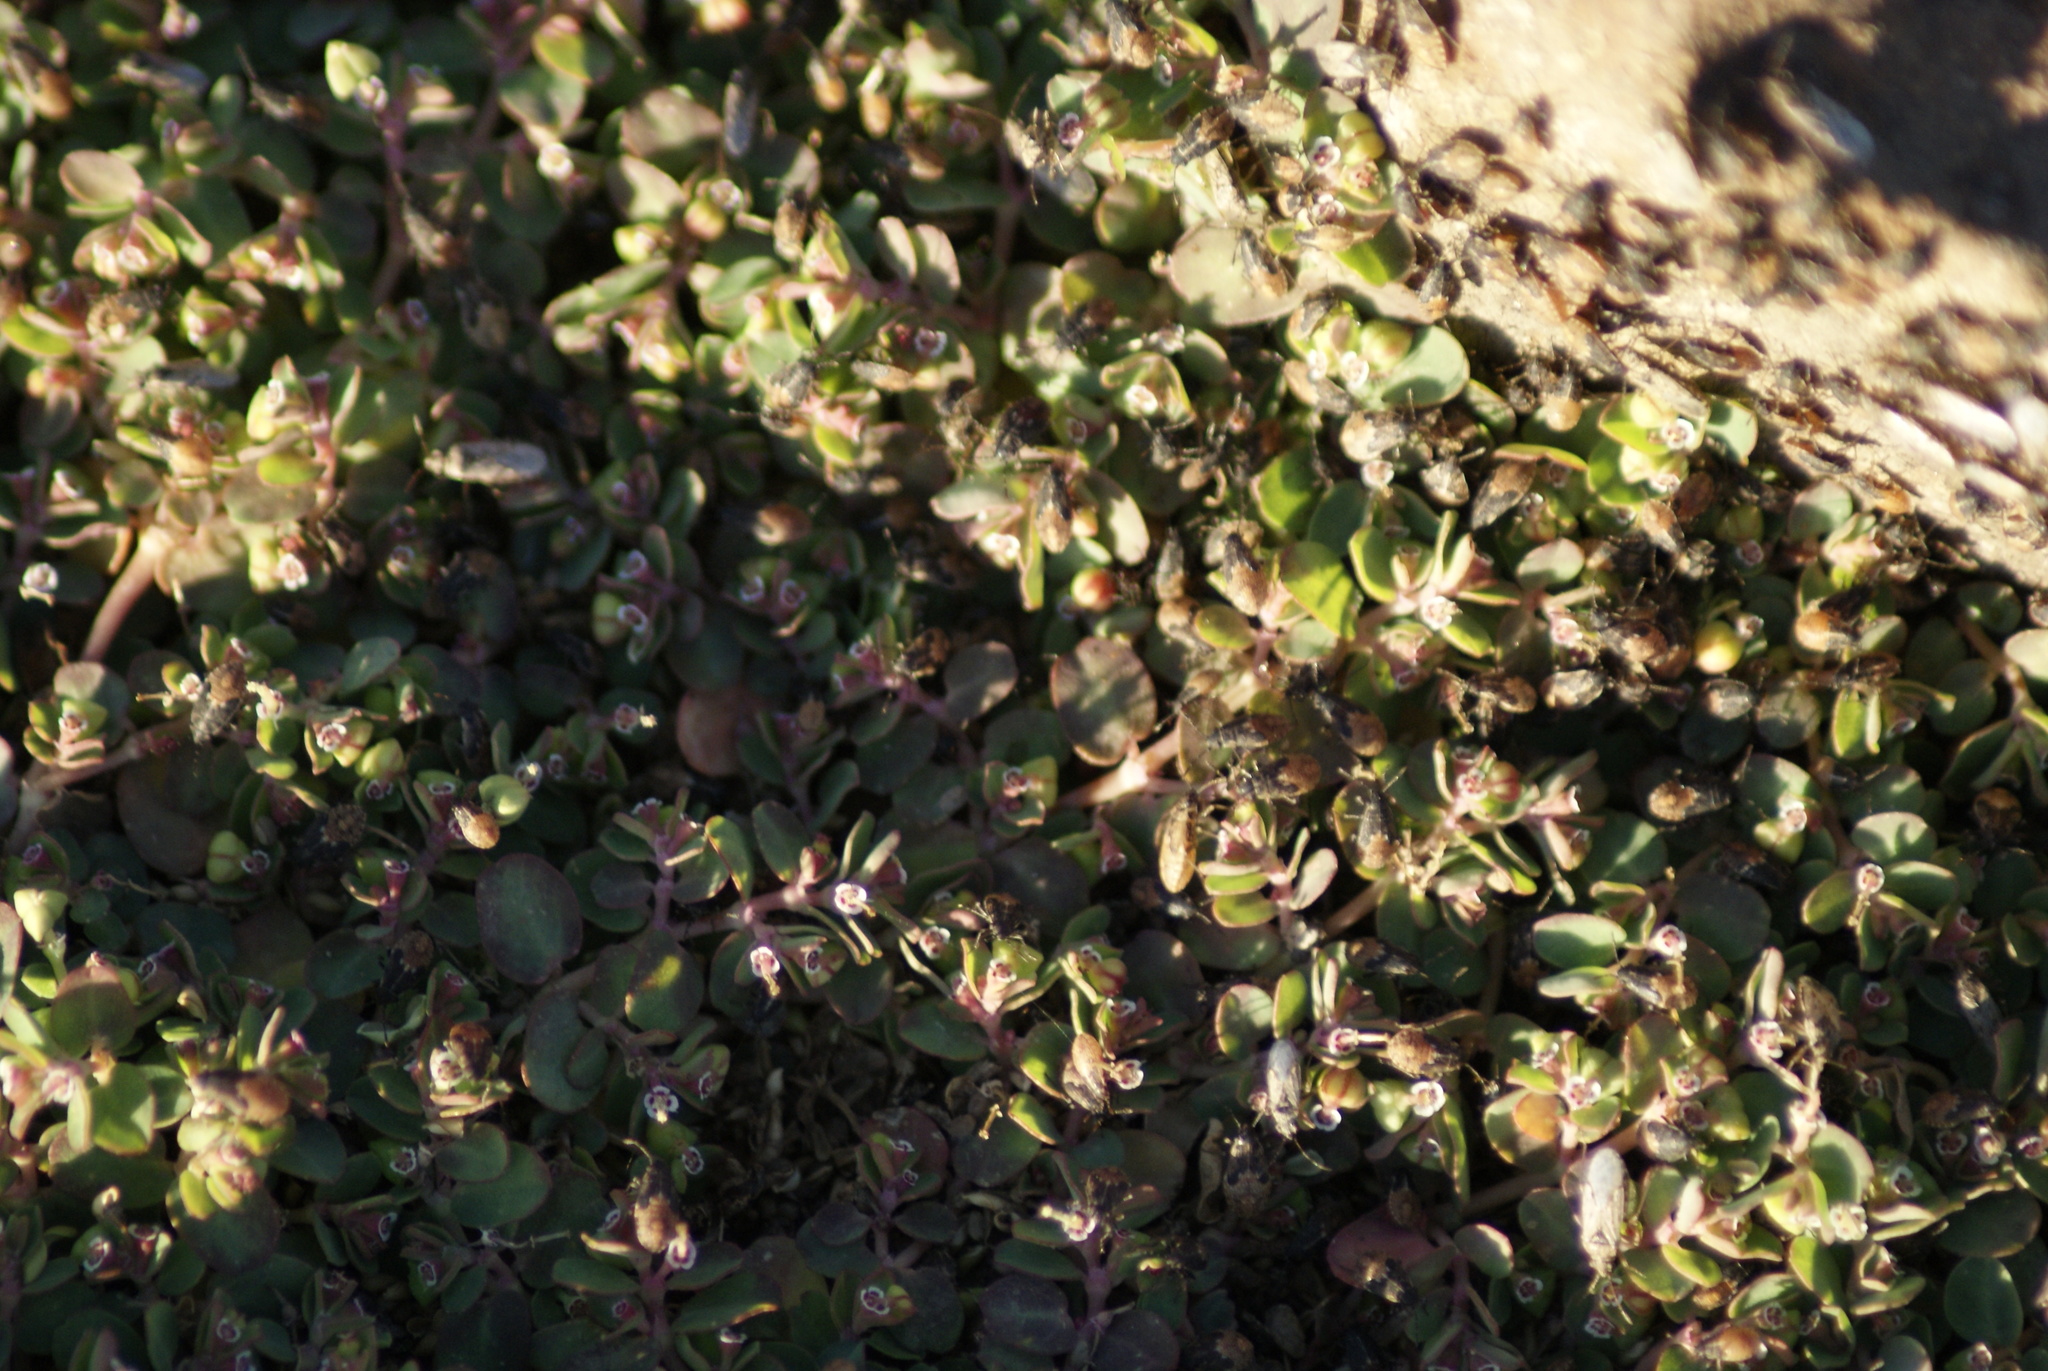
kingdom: Plantae
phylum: Tracheophyta
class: Magnoliopsida
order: Malpighiales
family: Euphorbiaceae
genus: Euphorbia
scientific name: Euphorbia serpens
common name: Matted sandmat
